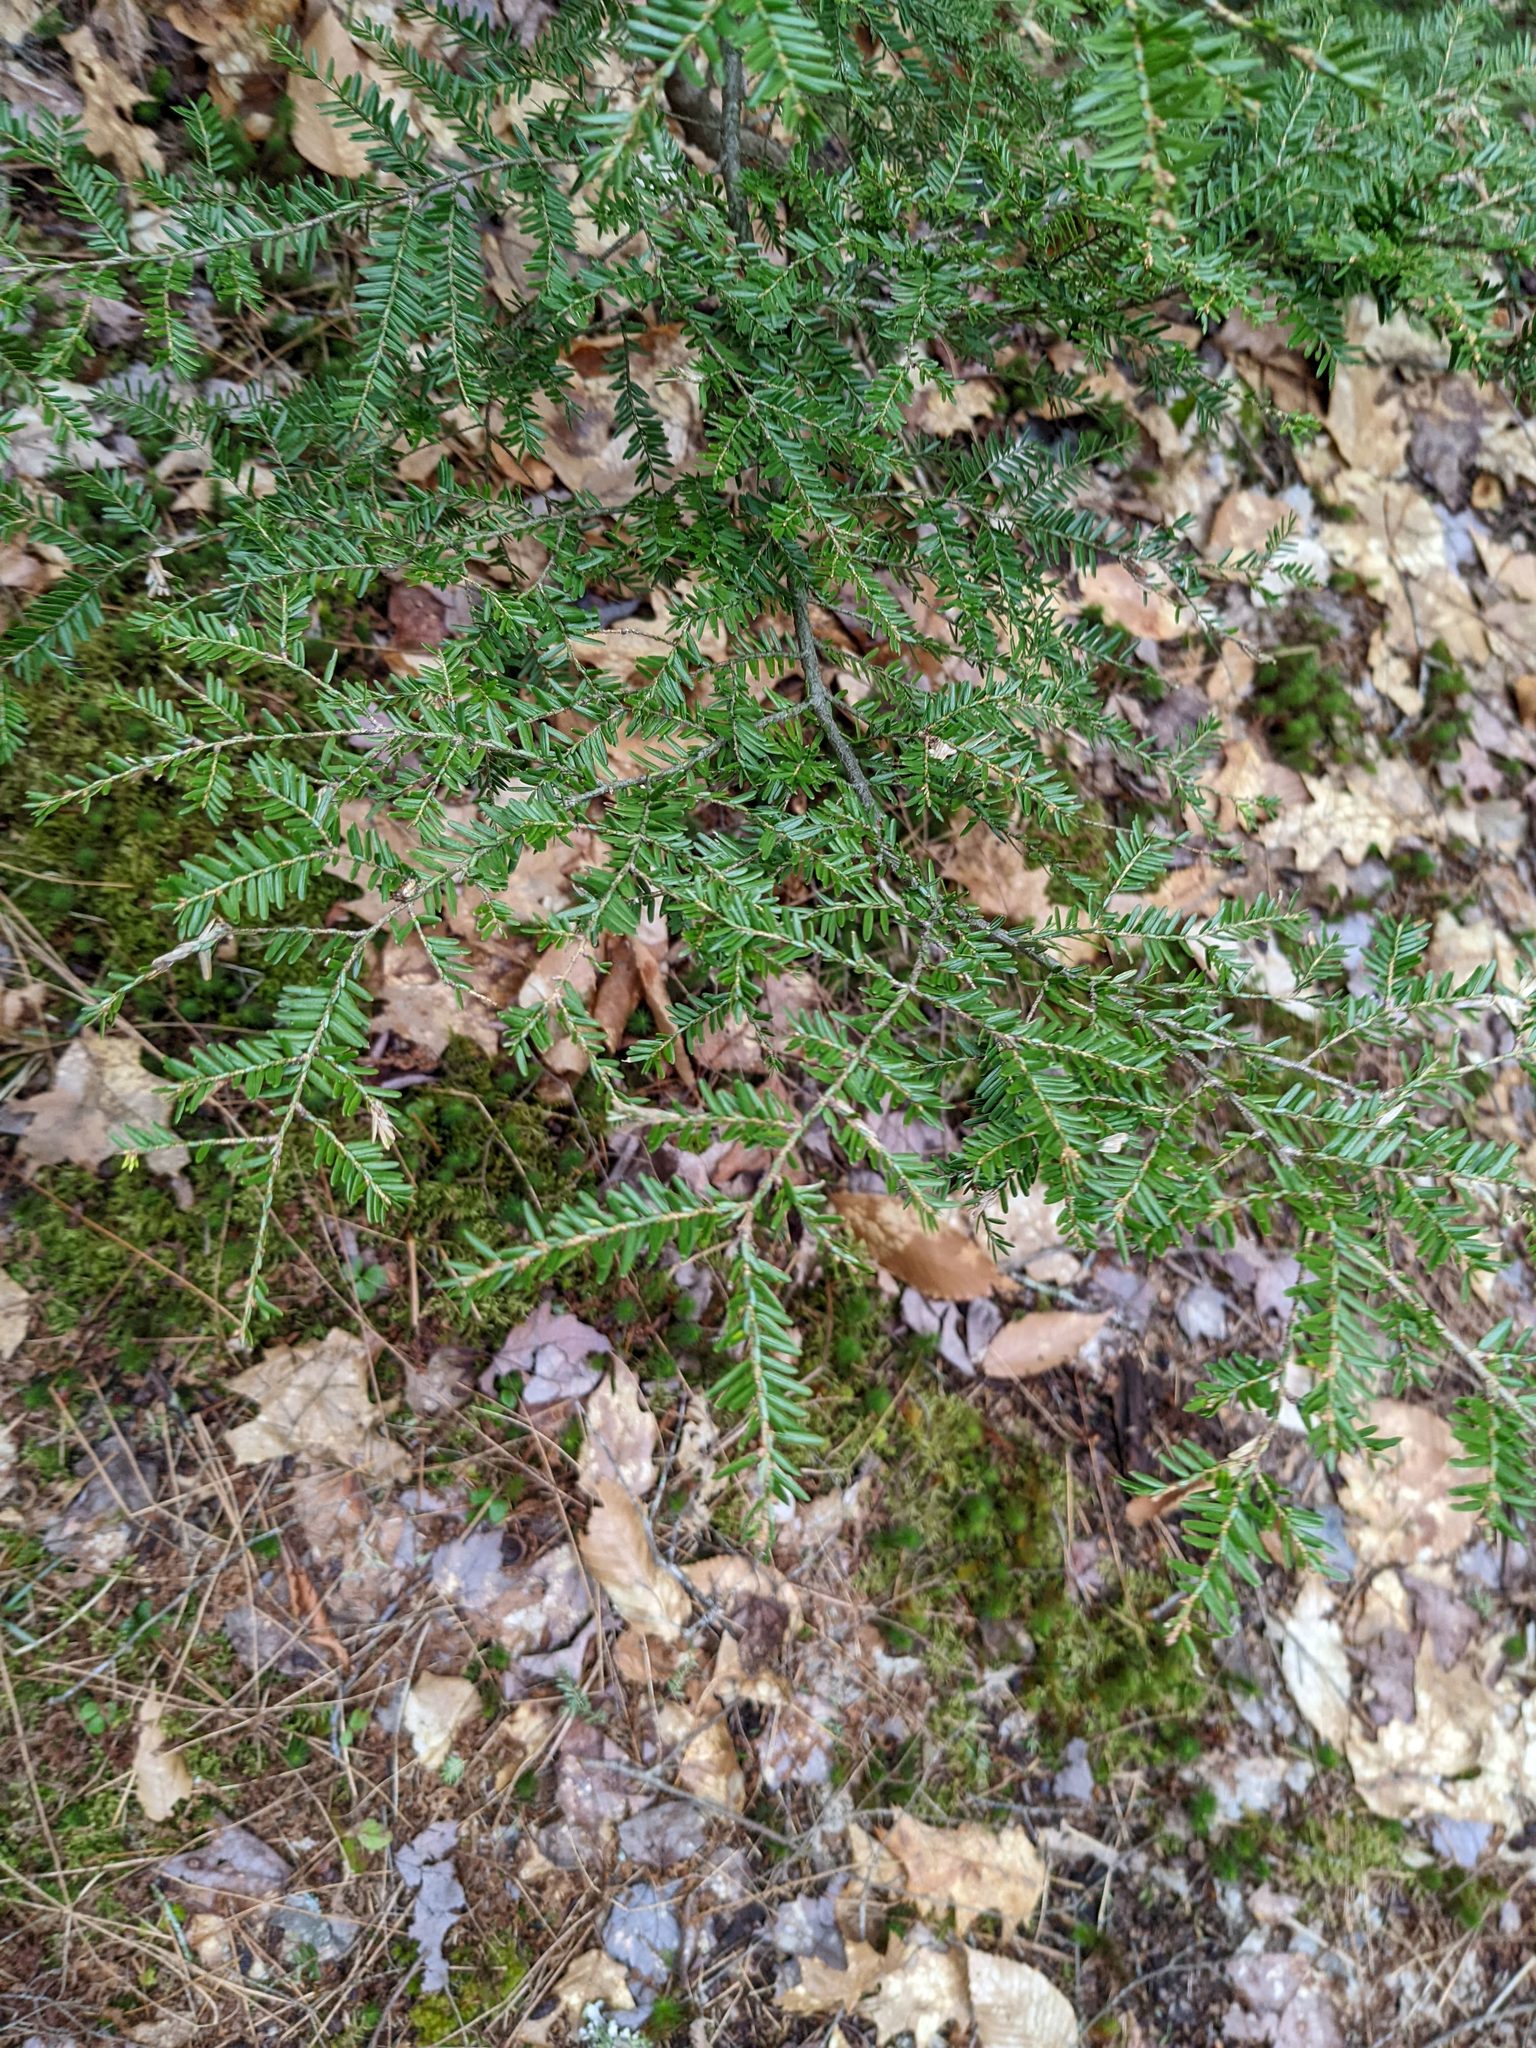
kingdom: Plantae
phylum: Tracheophyta
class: Pinopsida
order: Pinales
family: Pinaceae
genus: Tsuga
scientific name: Tsuga canadensis
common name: Eastern hemlock
